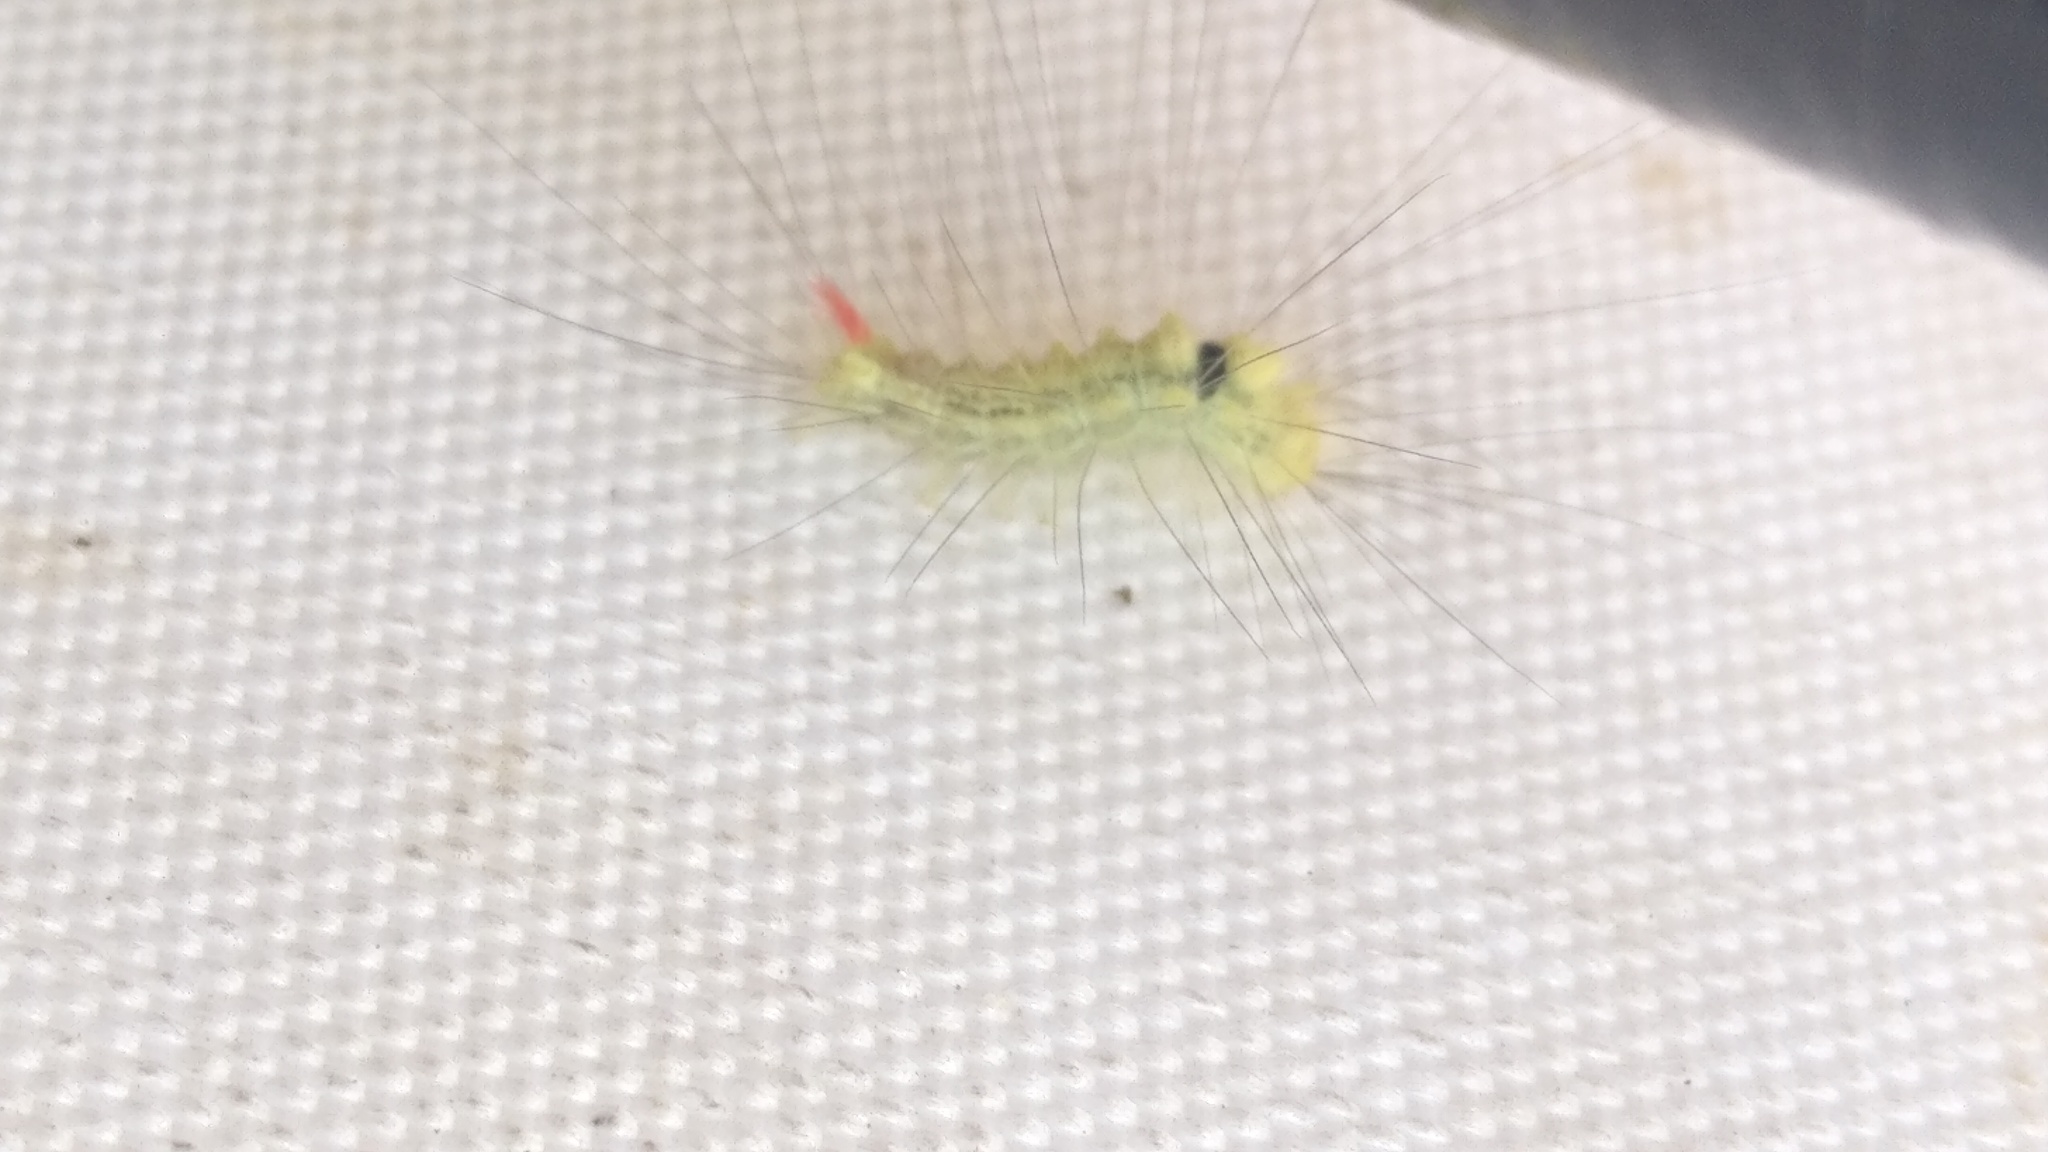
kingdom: Animalia
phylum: Arthropoda
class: Insecta
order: Lepidoptera
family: Erebidae
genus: Calliteara
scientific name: Calliteara pudibunda
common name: Pale tussock
